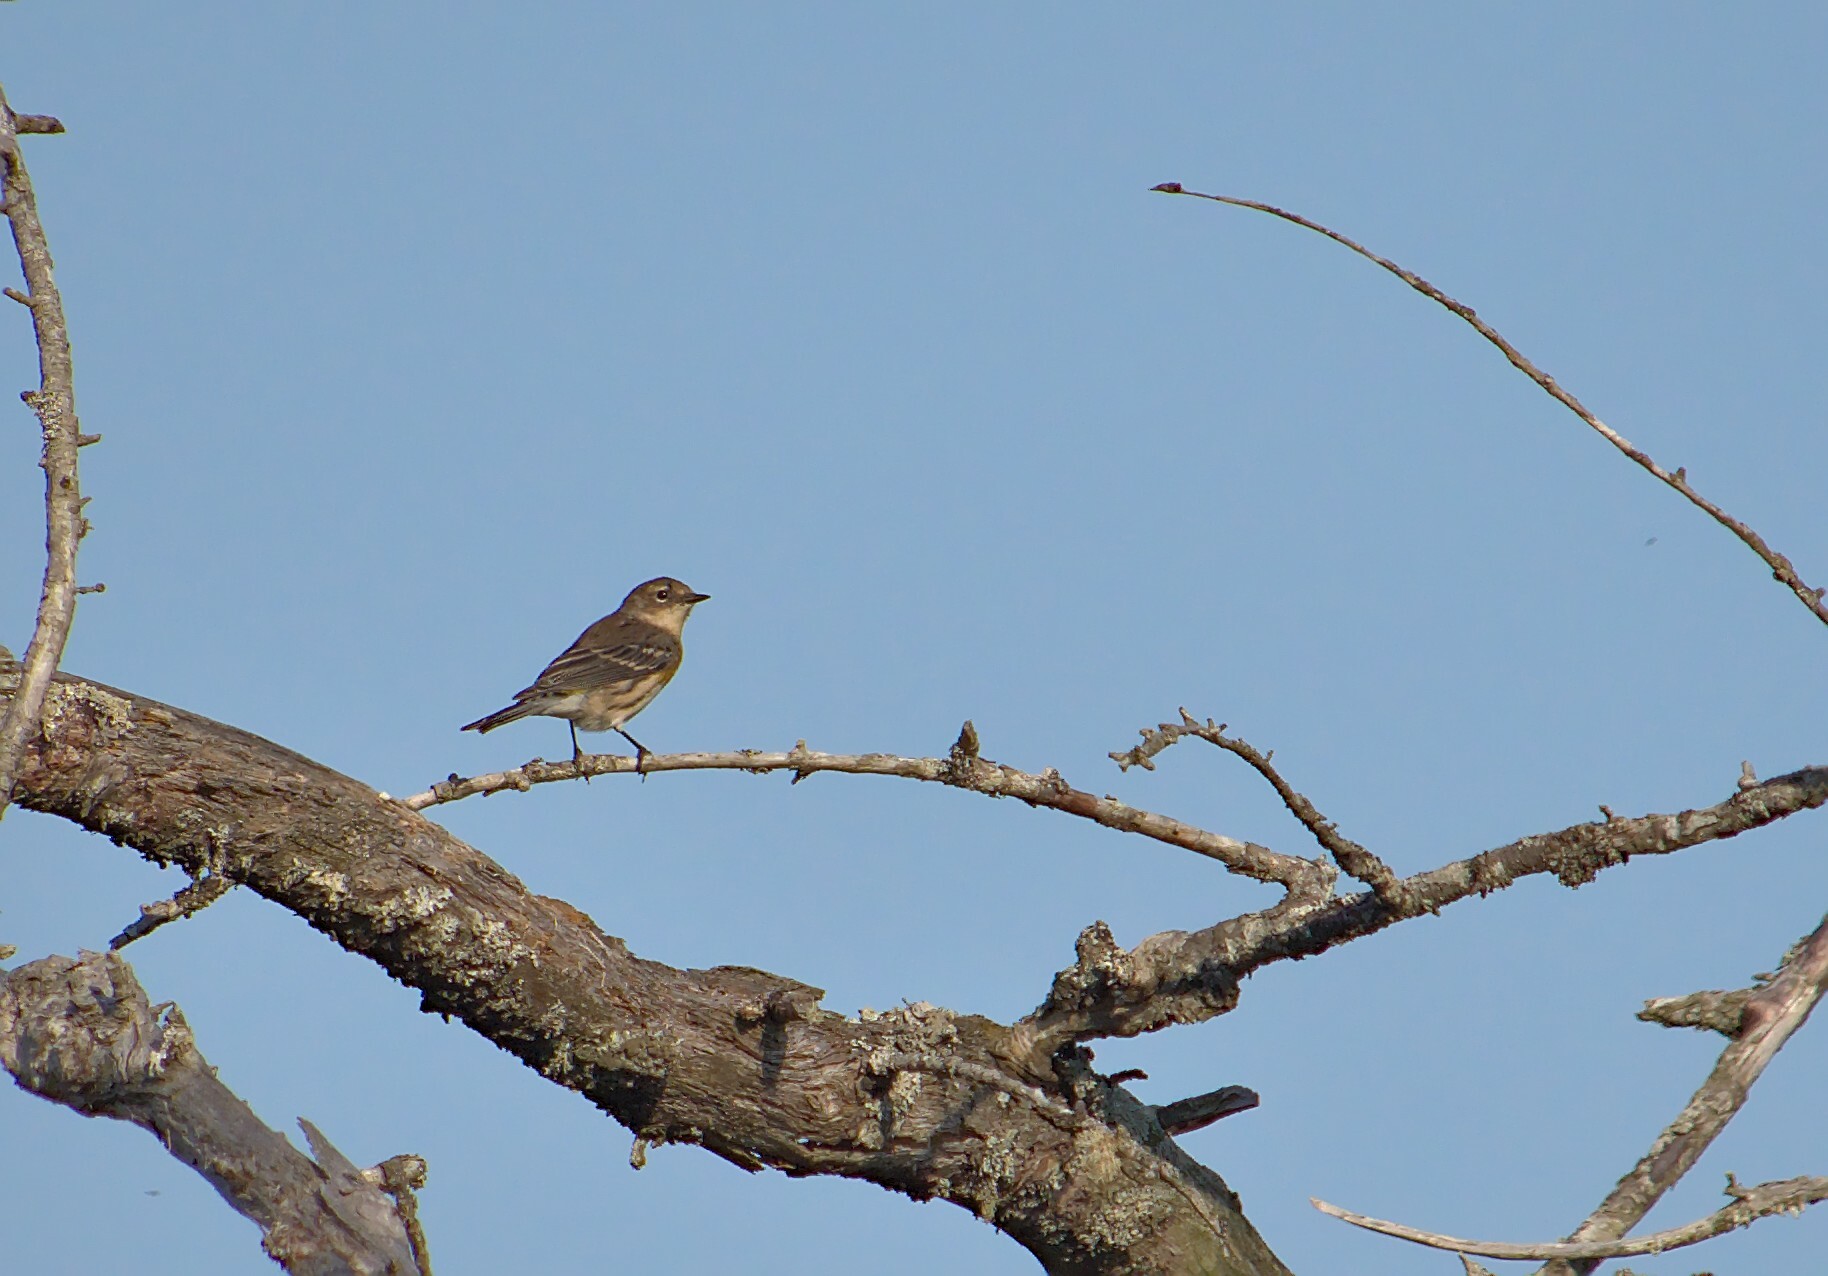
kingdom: Animalia
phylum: Chordata
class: Aves
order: Passeriformes
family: Parulidae
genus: Setophaga
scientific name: Setophaga coronata
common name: Myrtle warbler
